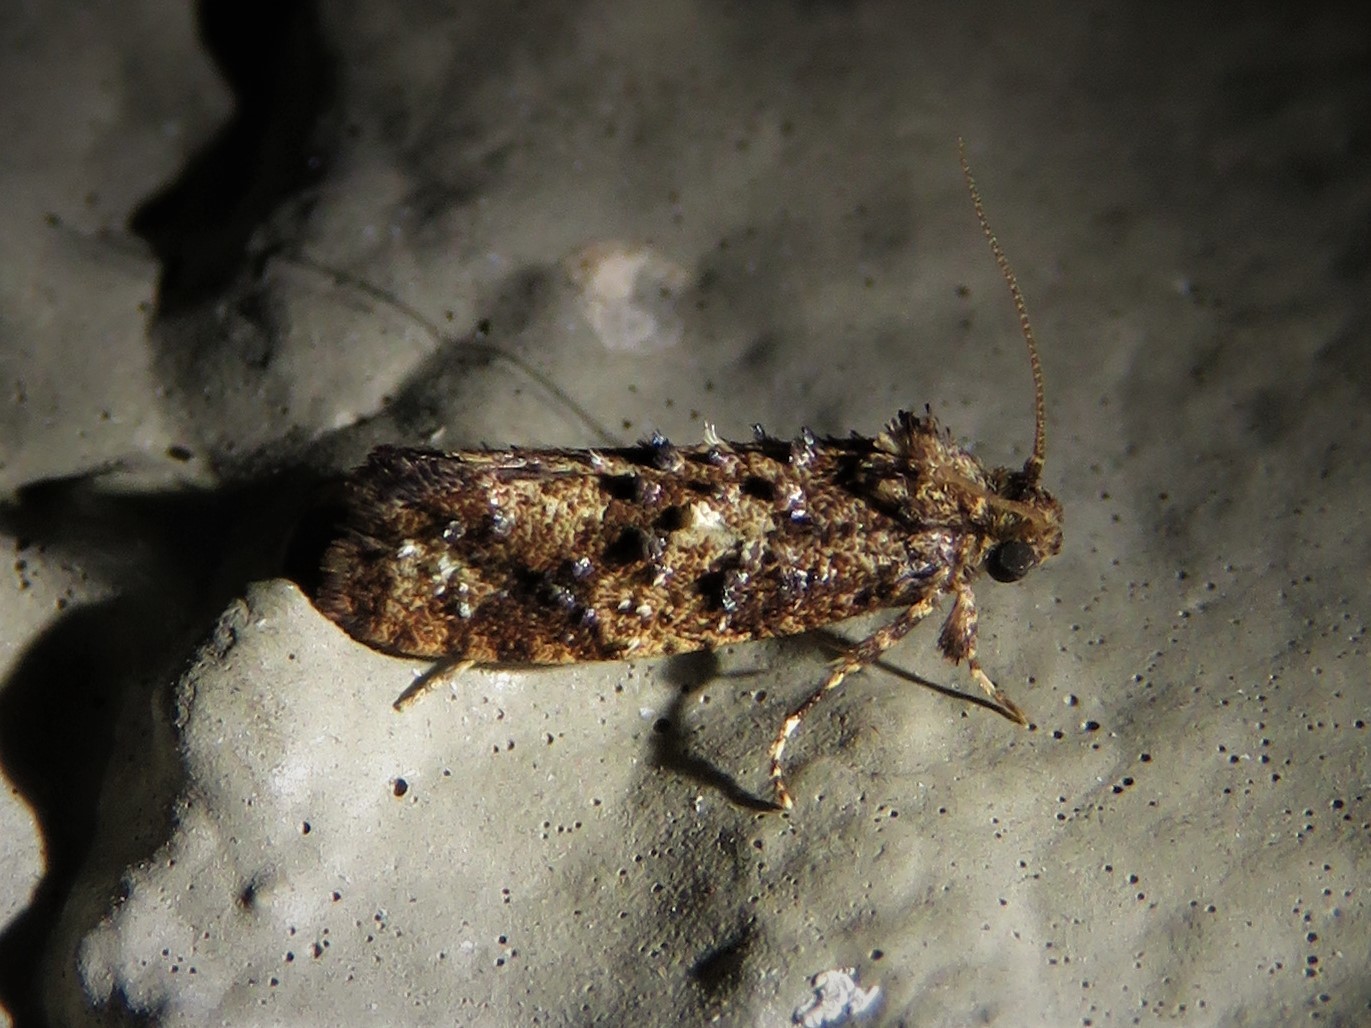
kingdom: Animalia
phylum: Arthropoda
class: Insecta
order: Lepidoptera
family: Tineidae
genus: Acrolophus
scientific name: Acrolophus cressoni
